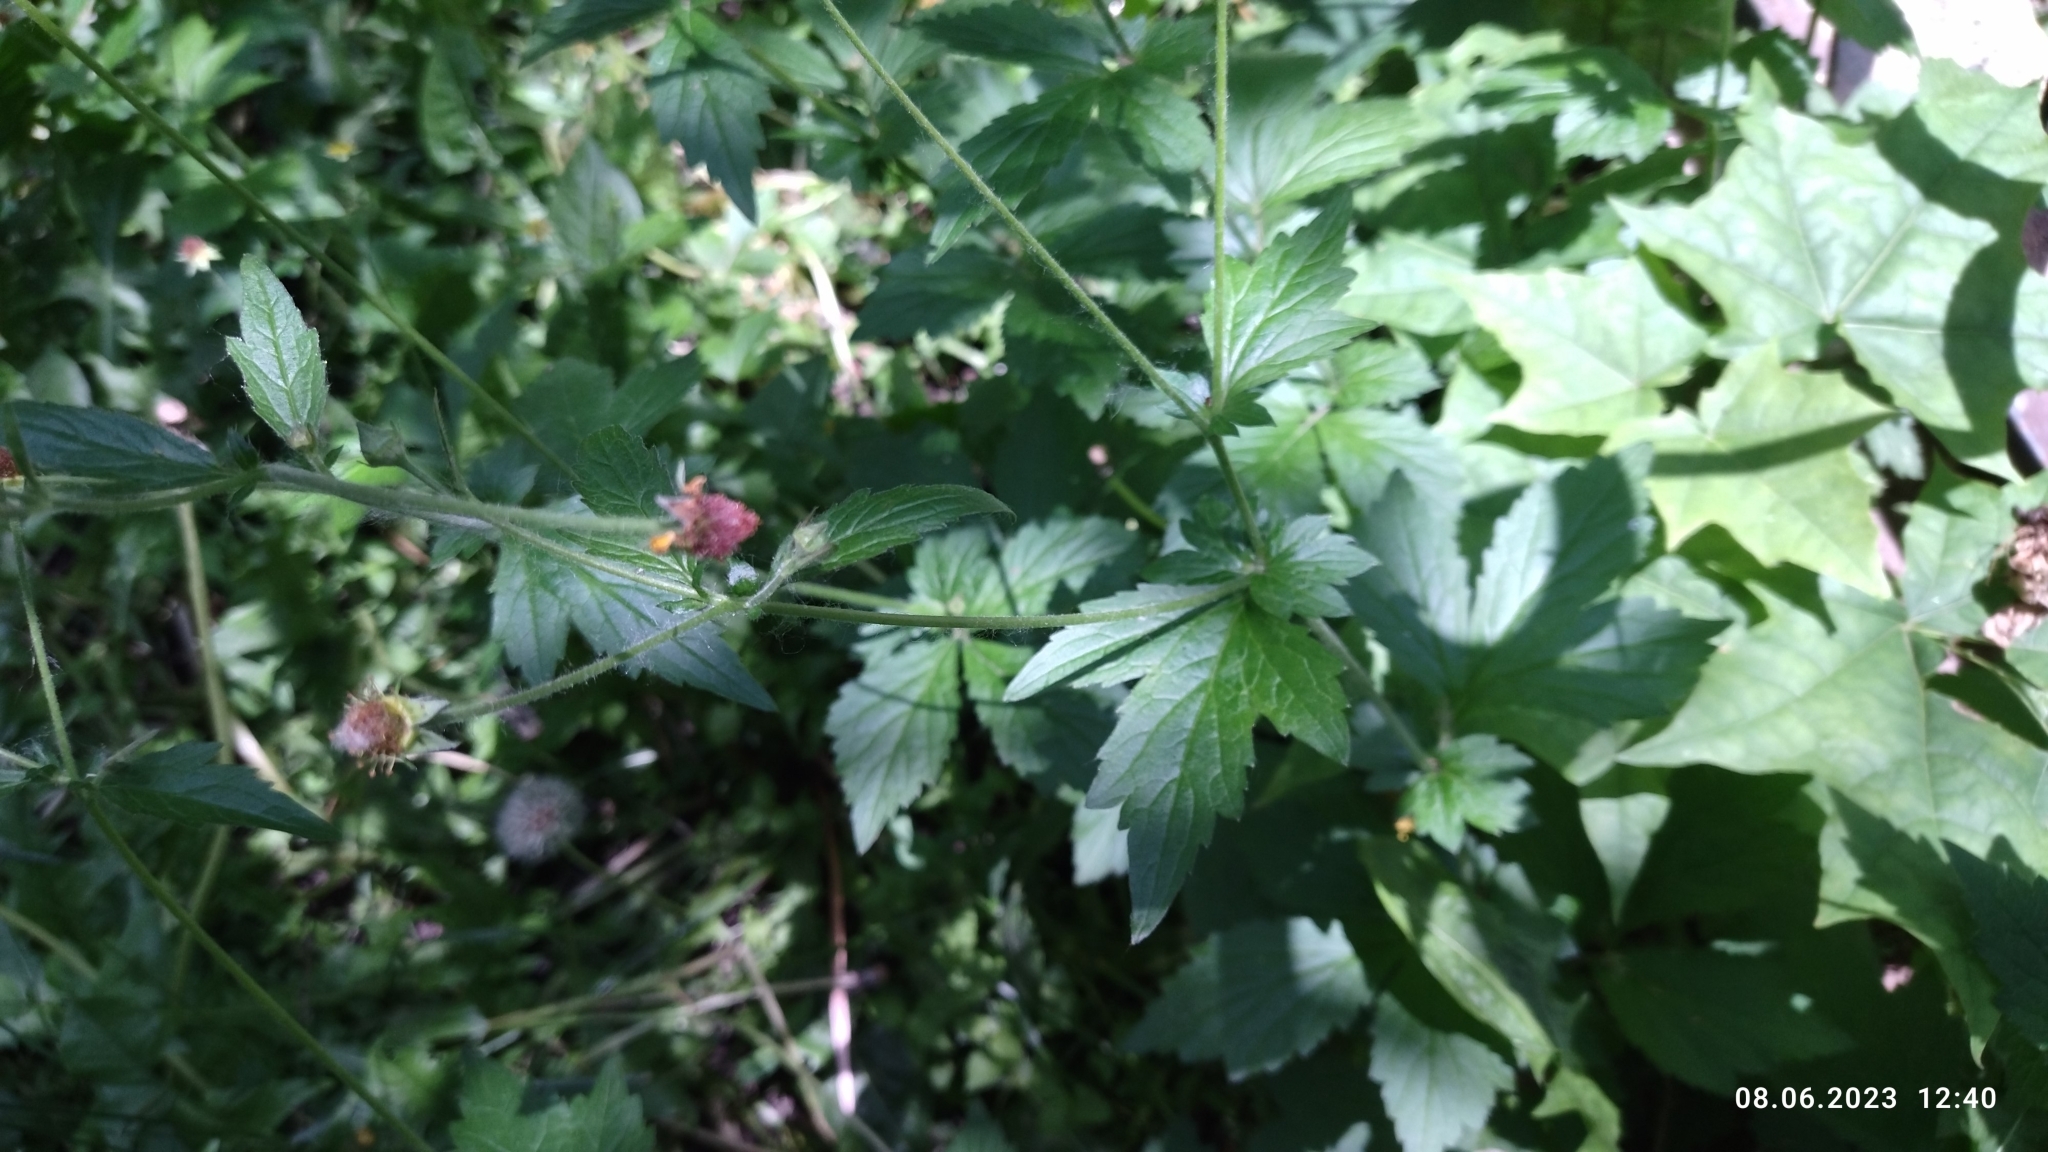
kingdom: Plantae
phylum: Tracheophyta
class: Magnoliopsida
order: Rosales
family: Rosaceae
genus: Geum
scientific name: Geum urbanum
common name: Wood avens
